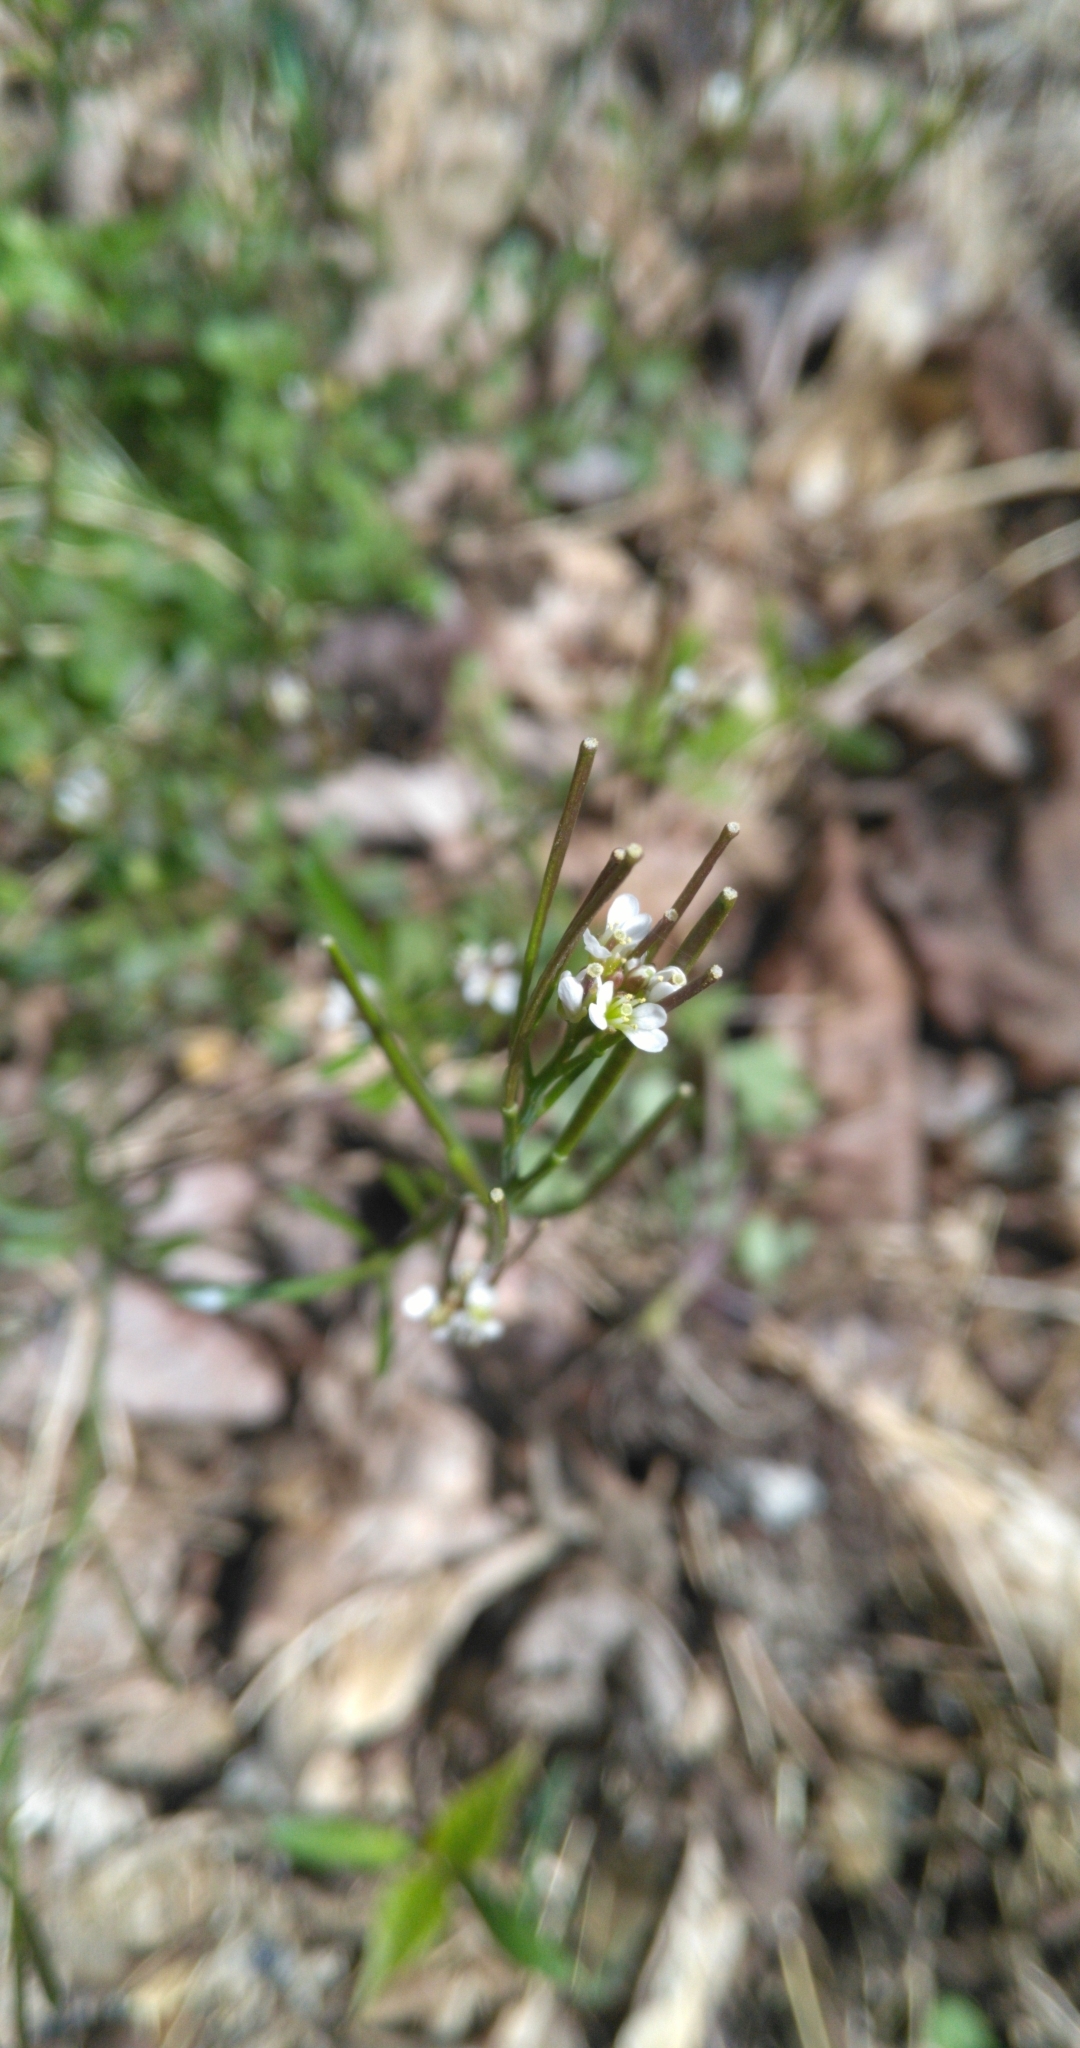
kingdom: Plantae
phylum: Tracheophyta
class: Magnoliopsida
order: Brassicales
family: Brassicaceae
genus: Cardamine
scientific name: Cardamine hirsuta
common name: Hairy bittercress
